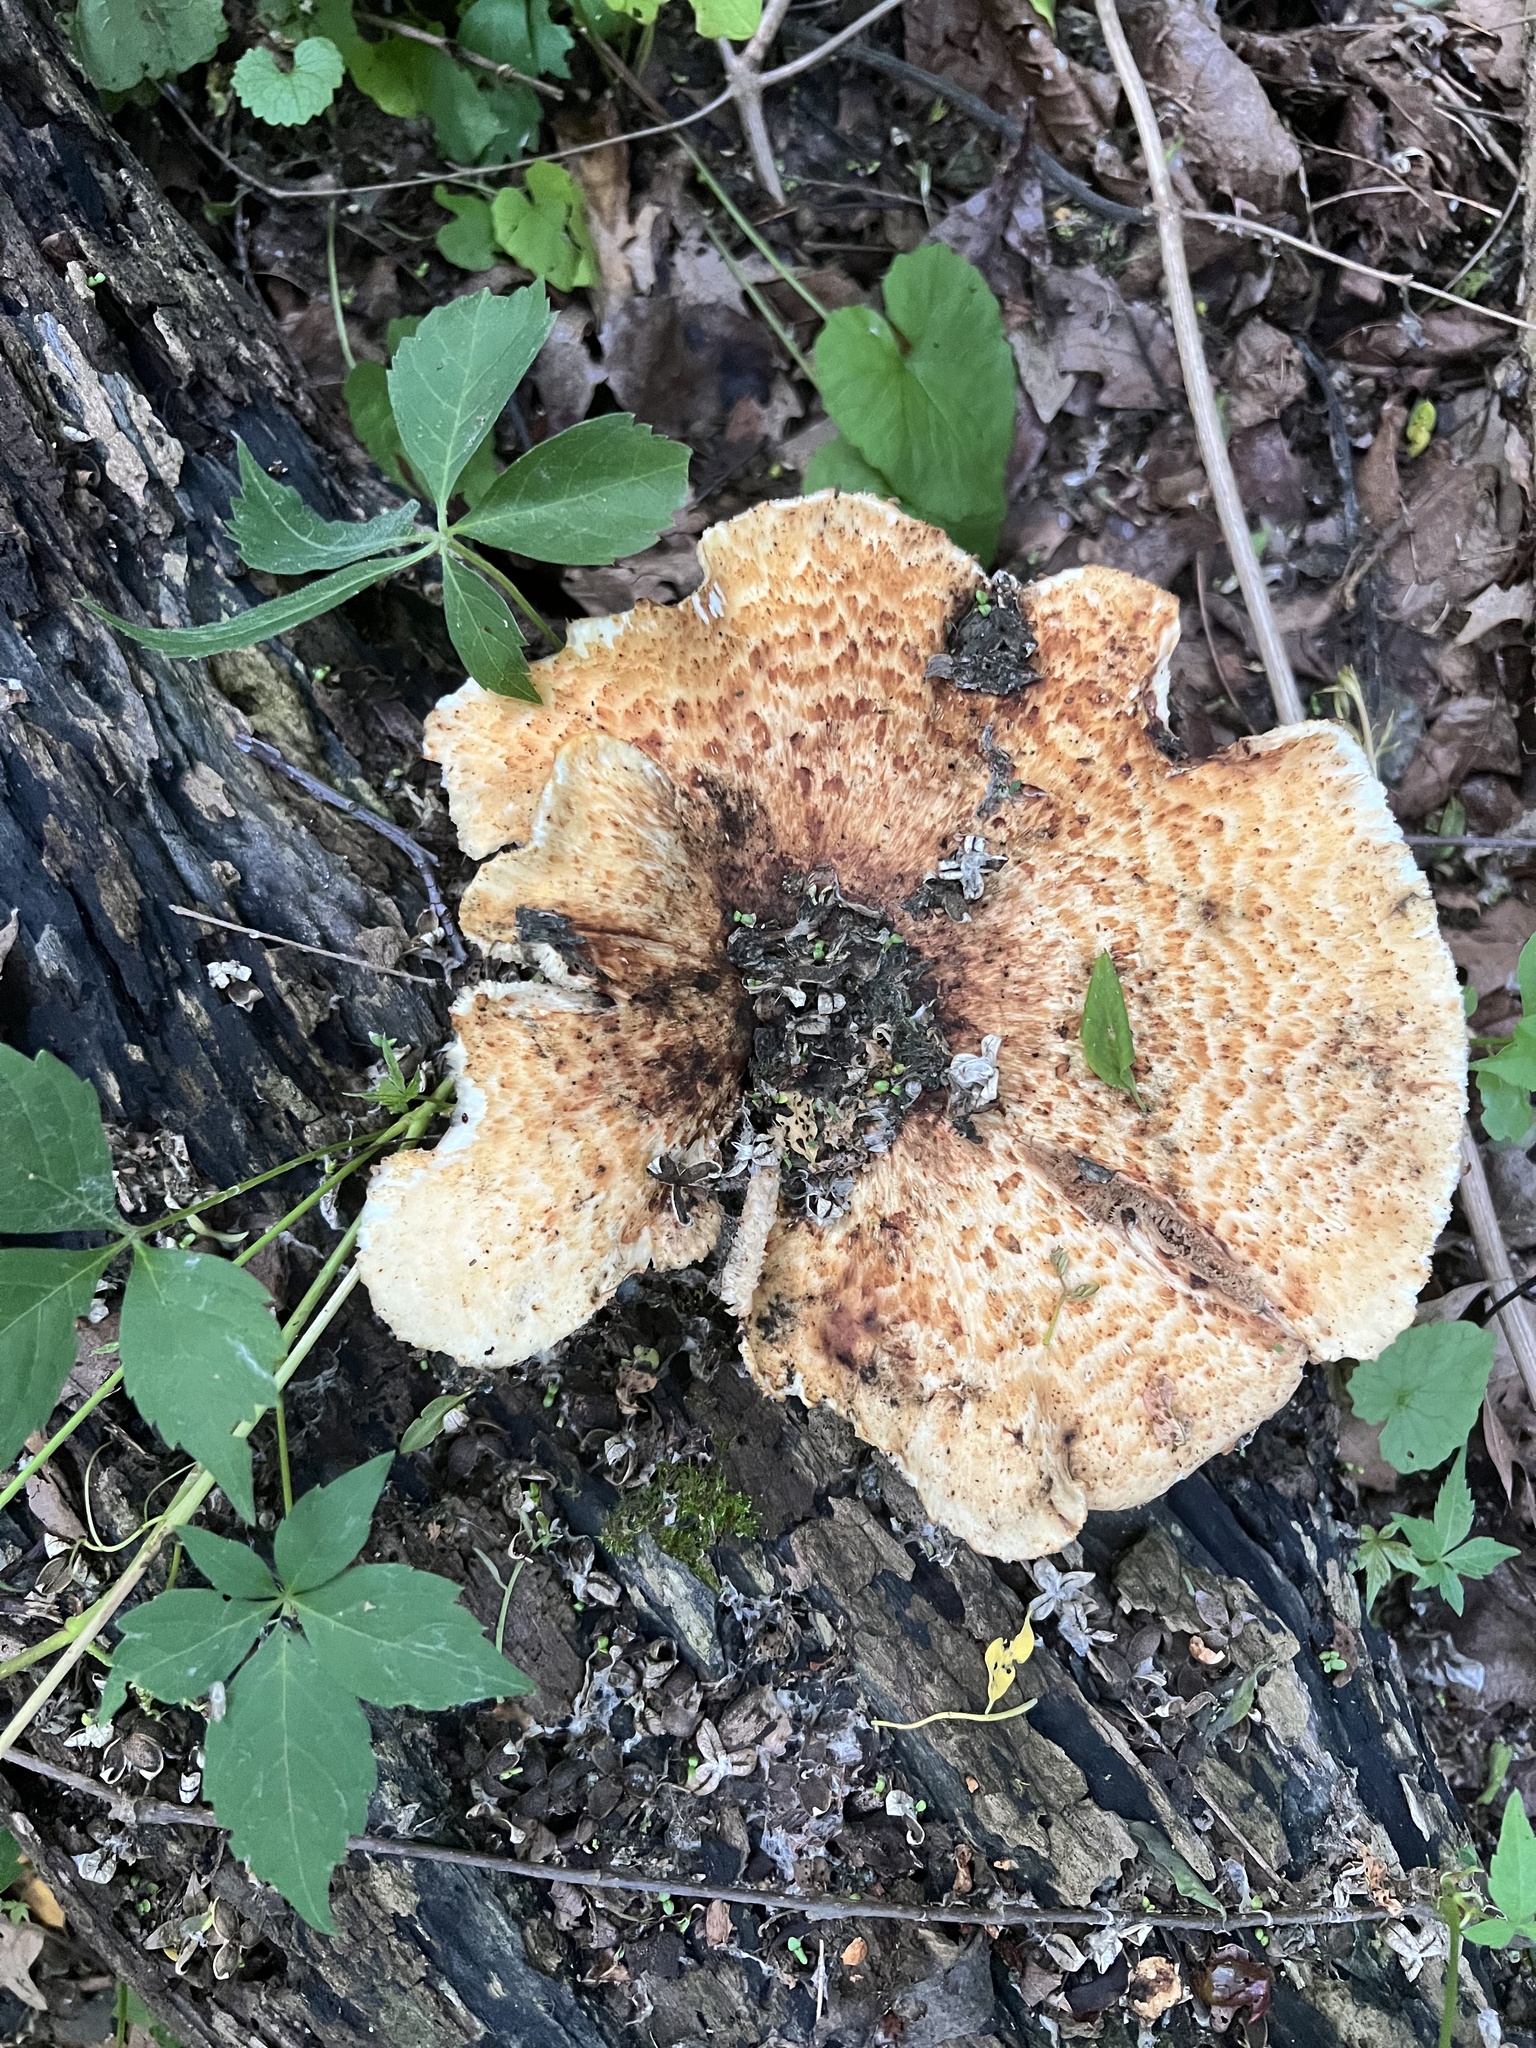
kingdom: Fungi
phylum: Basidiomycota
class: Agaricomycetes
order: Polyporales
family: Polyporaceae
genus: Cerioporus
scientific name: Cerioporus squamosus
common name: Dryad's saddle
